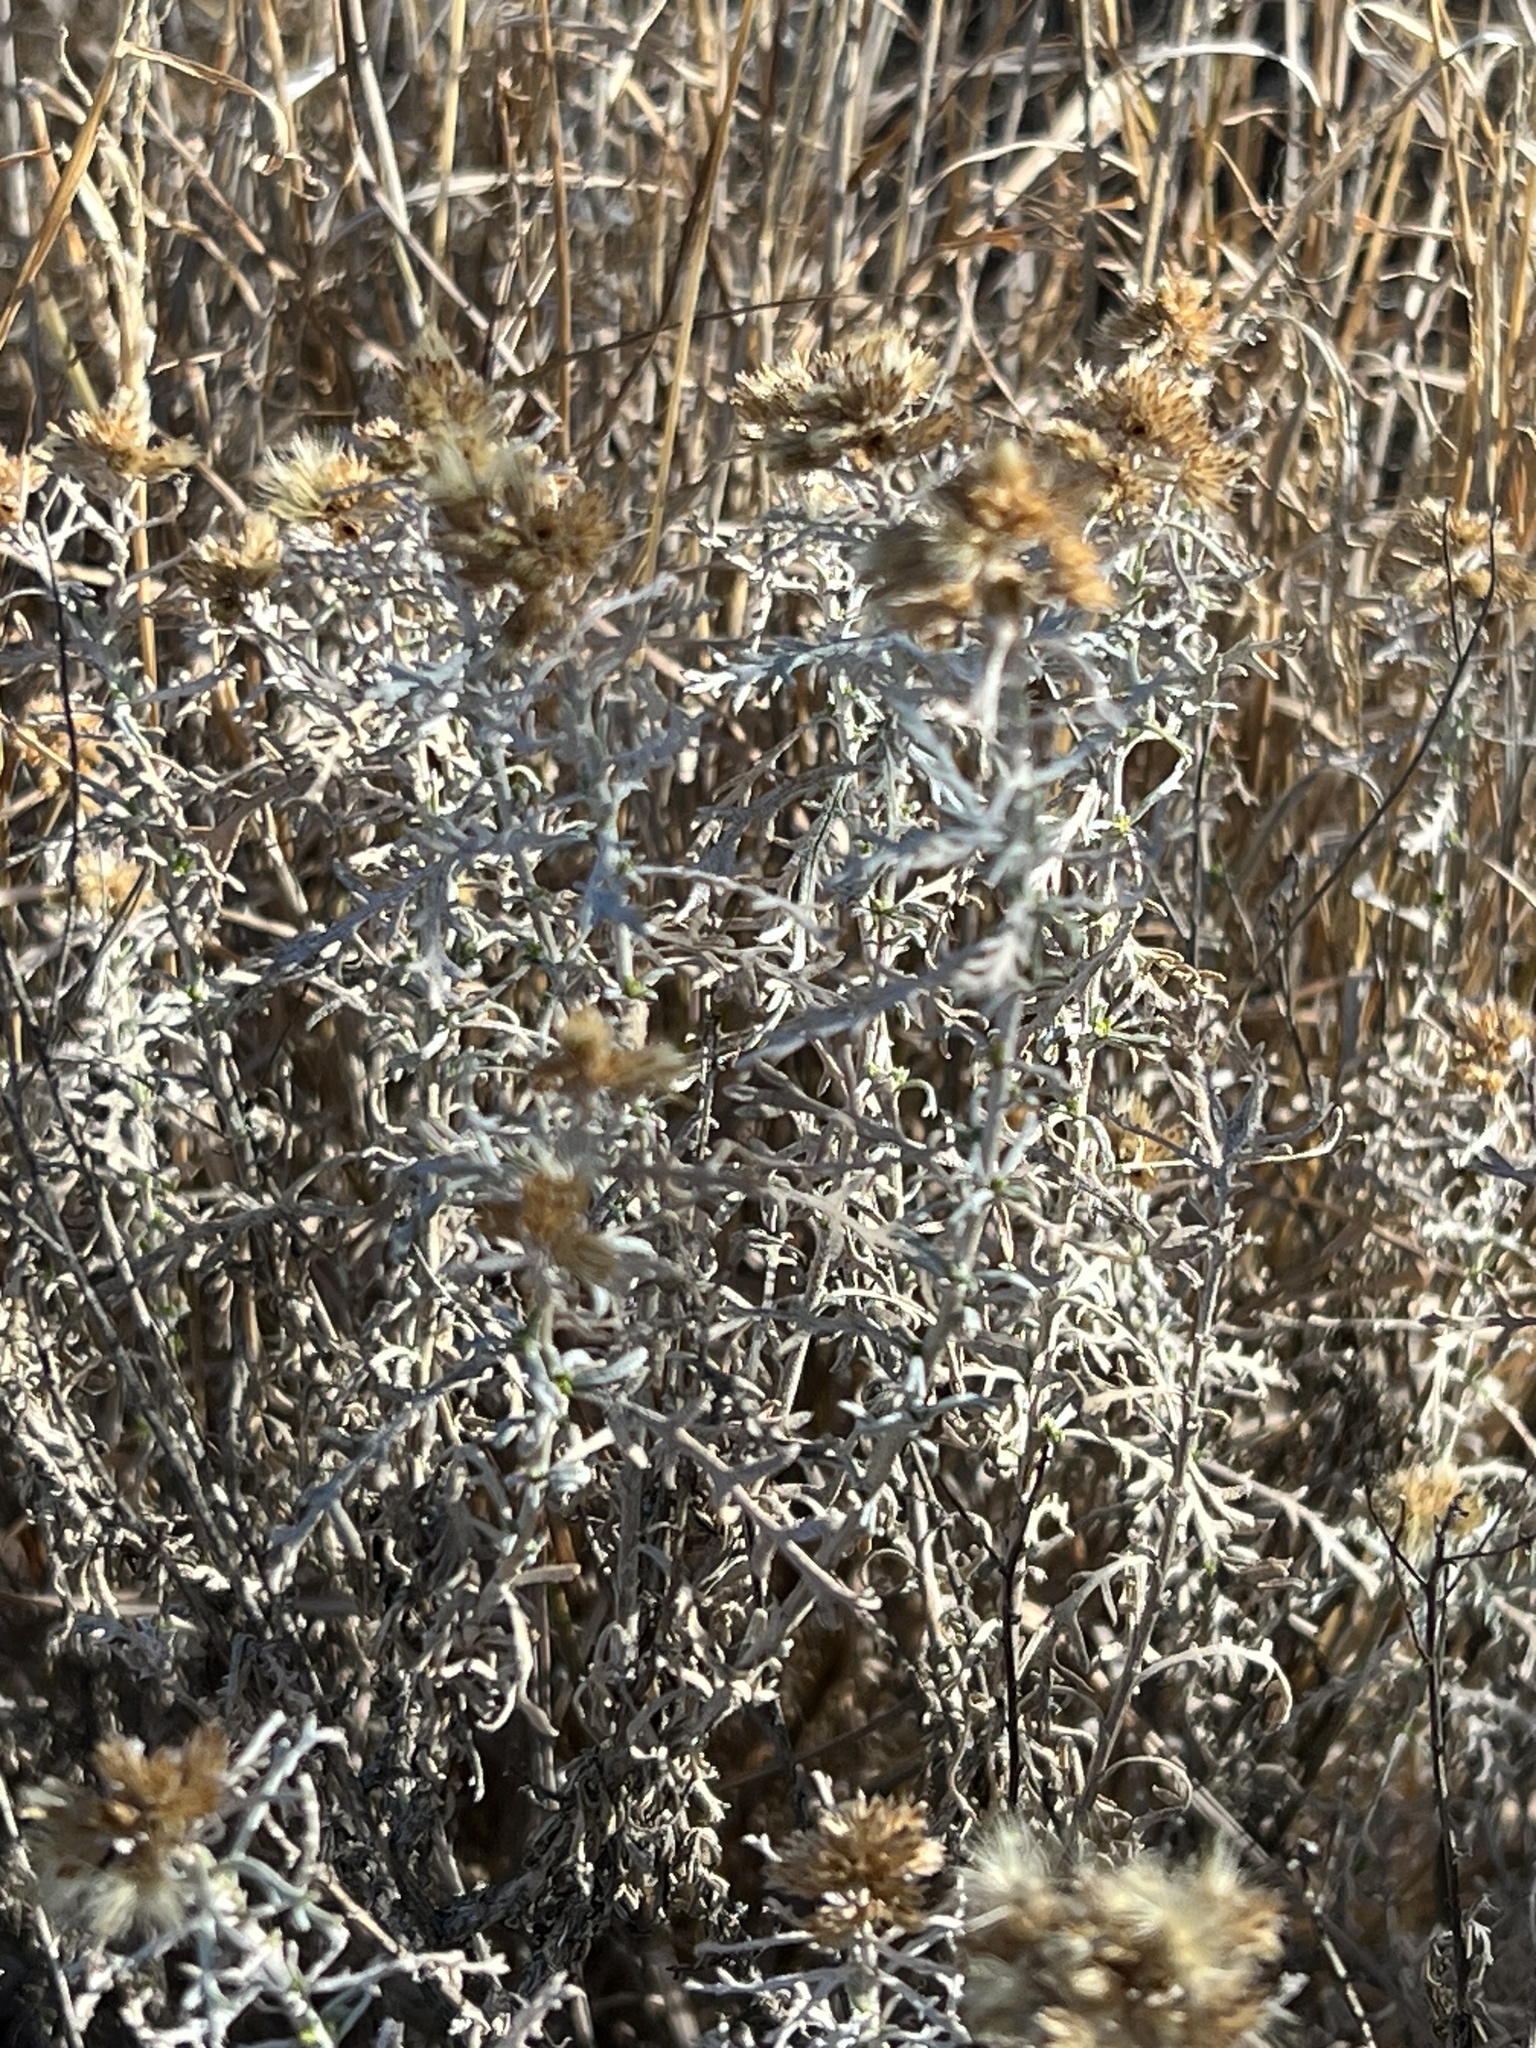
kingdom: Plantae
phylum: Tracheophyta
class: Magnoliopsida
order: Asterales
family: Asteraceae
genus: Isocoma
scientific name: Isocoma tenuisecta
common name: Burroweed
